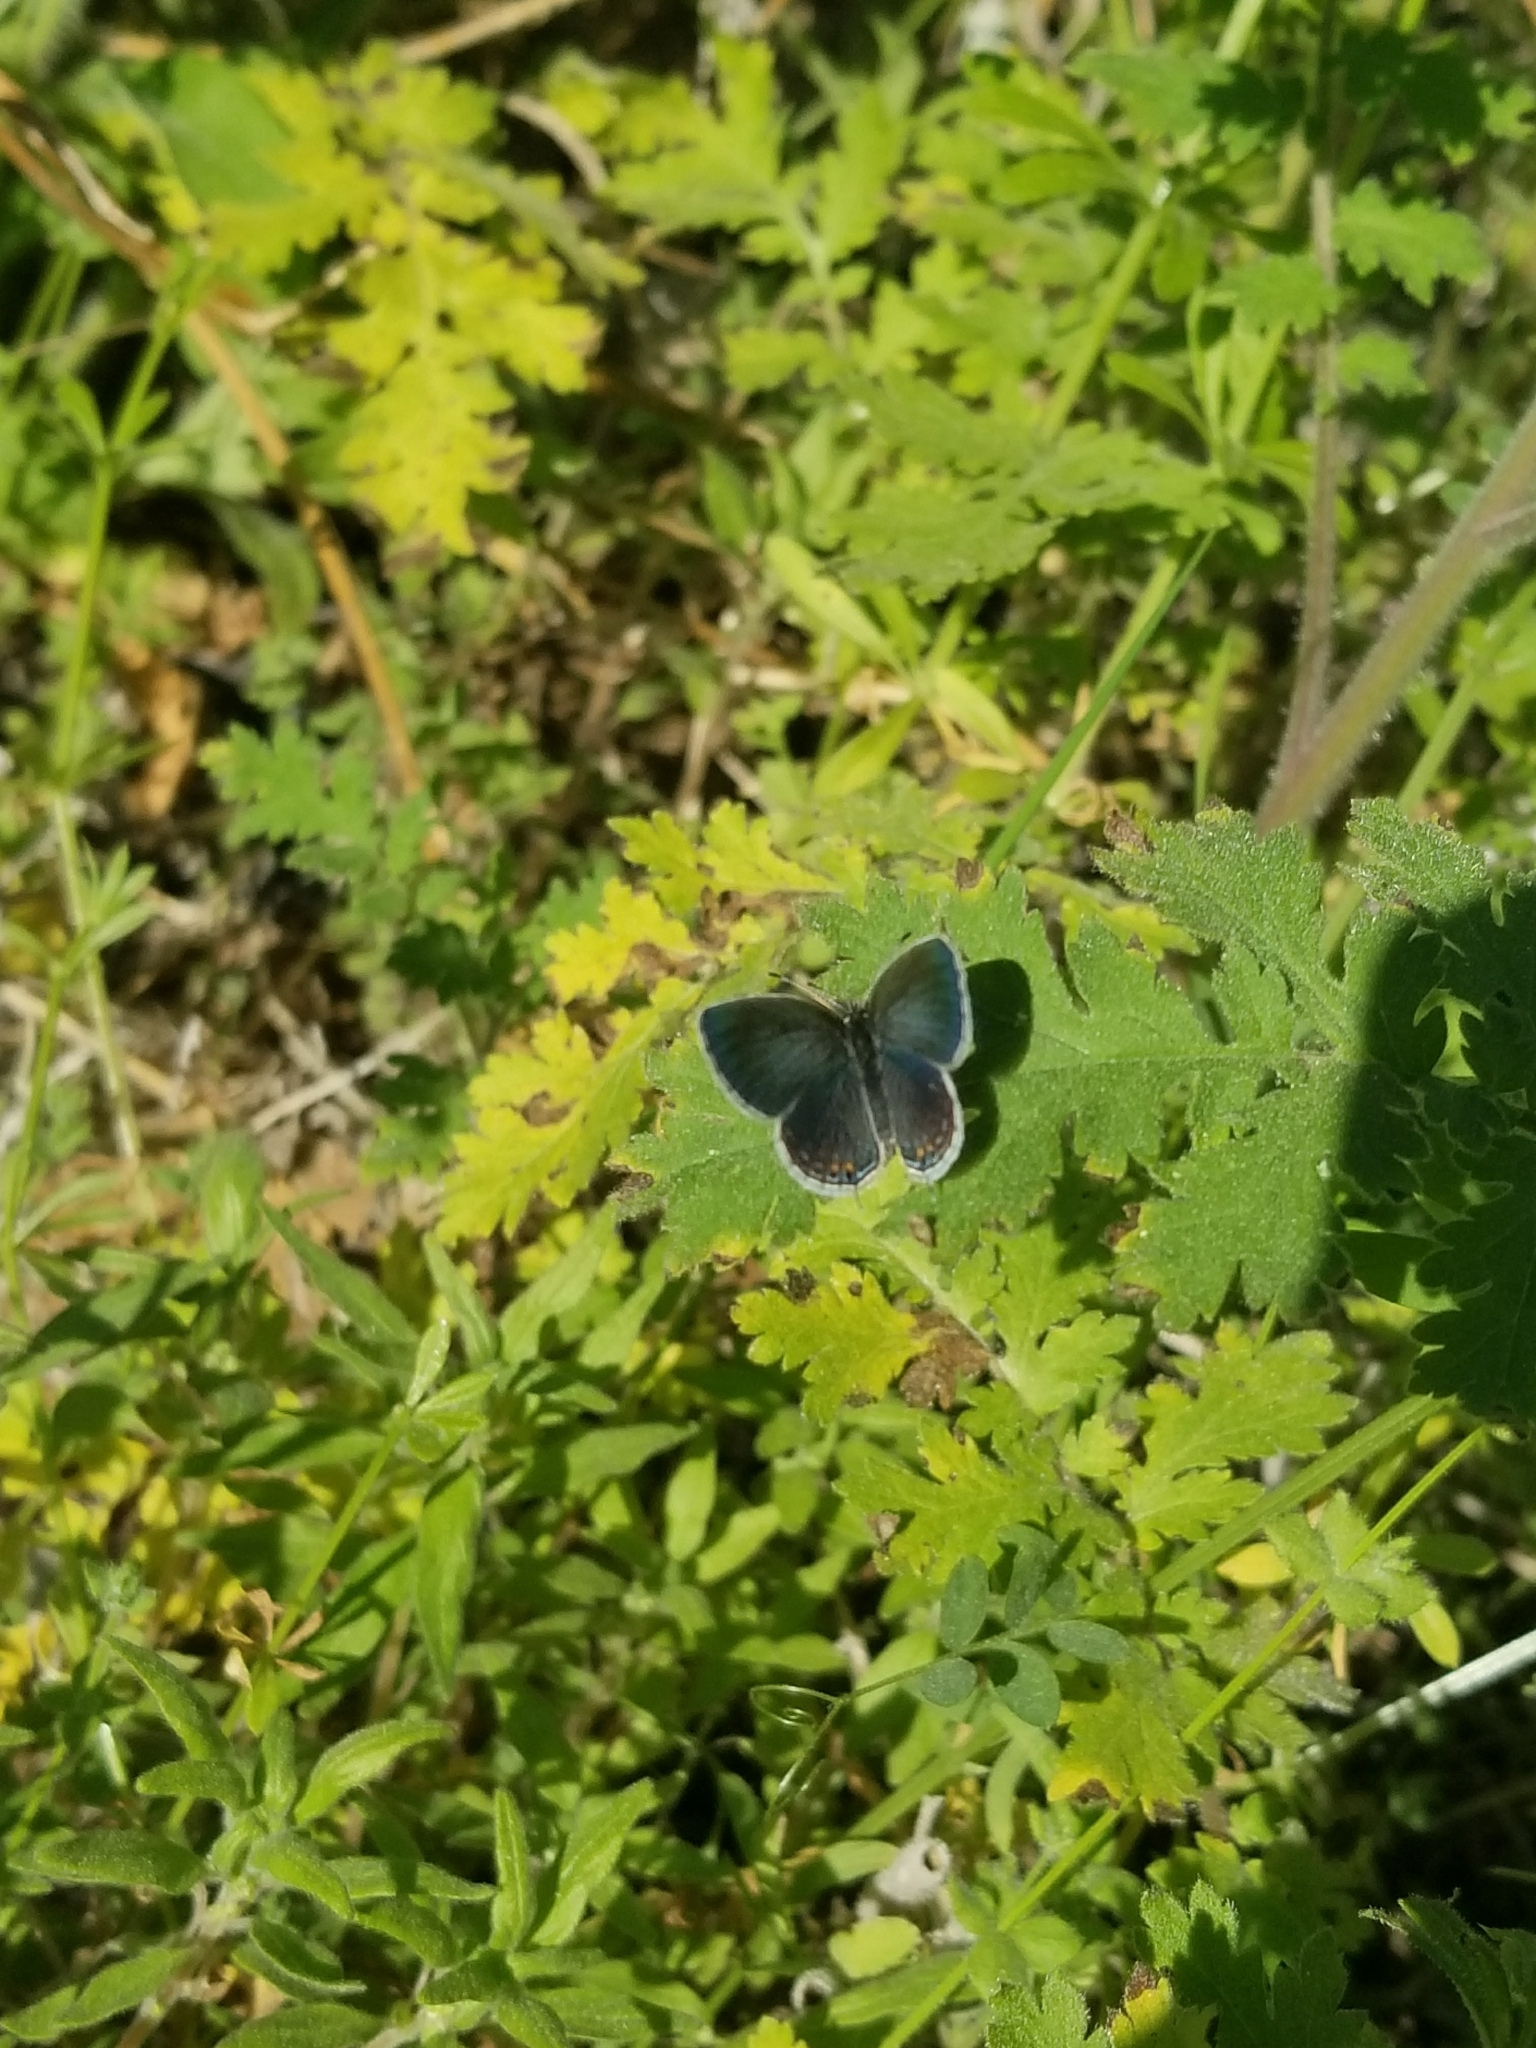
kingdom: Animalia
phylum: Arthropoda
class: Insecta
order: Lepidoptera
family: Lycaenidae
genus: Elkalyce
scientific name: Elkalyce comyntas
